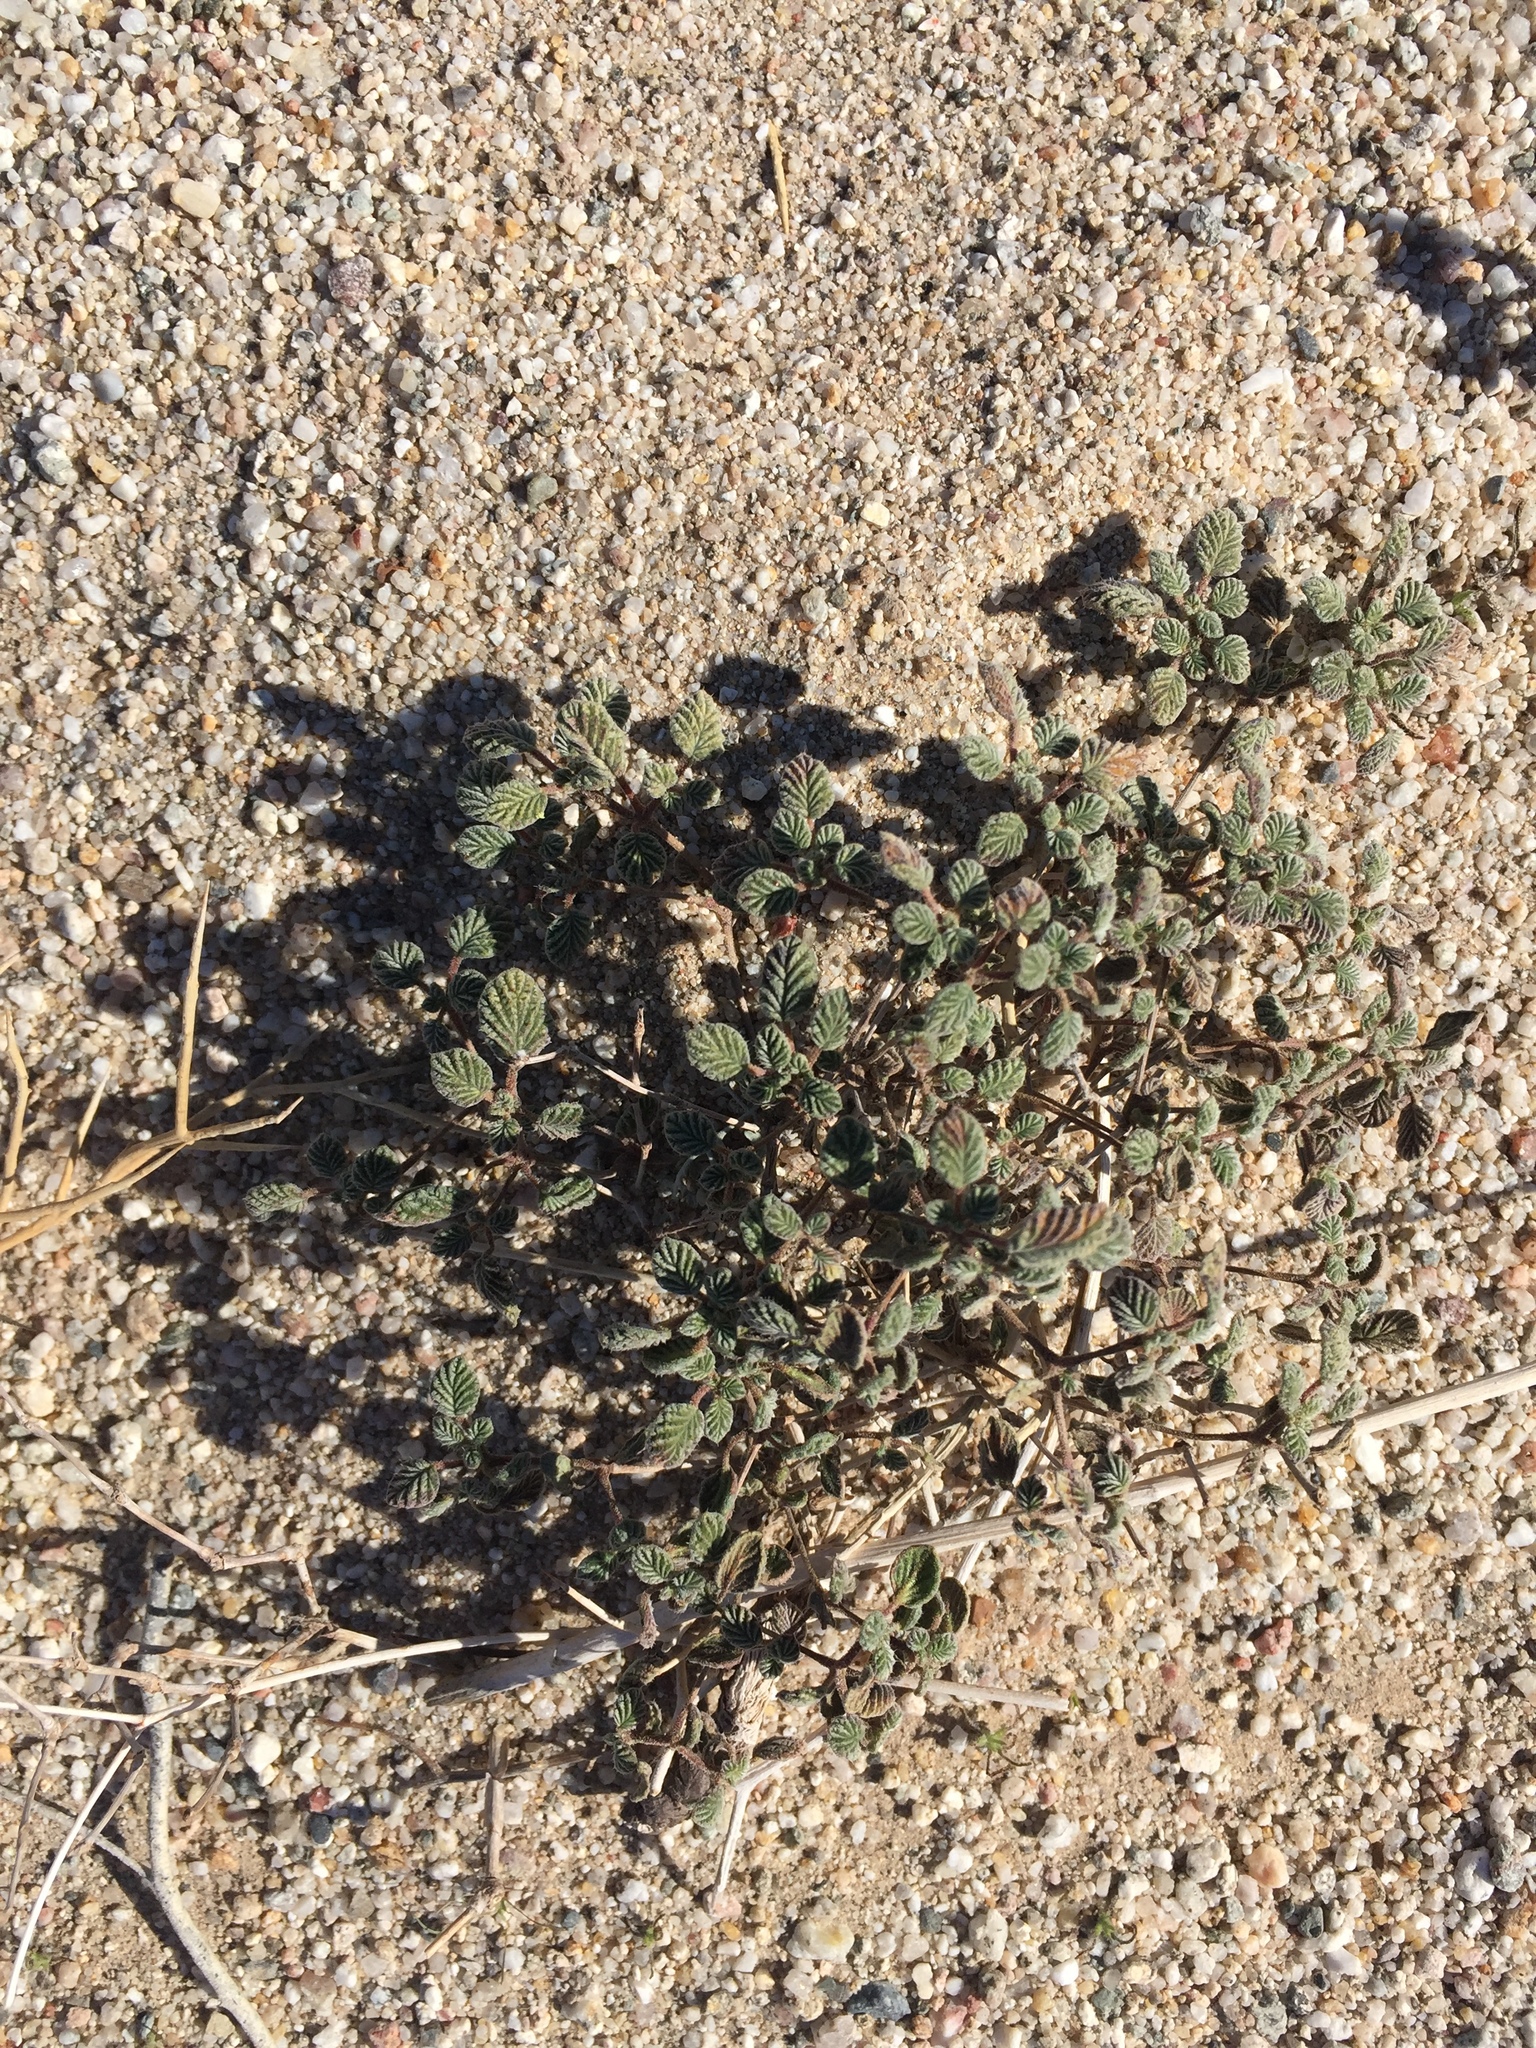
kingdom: Plantae
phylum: Tracheophyta
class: Magnoliopsida
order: Boraginales
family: Ehretiaceae
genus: Tiquilia
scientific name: Tiquilia plicata
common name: Fan-leaf tiquilia
